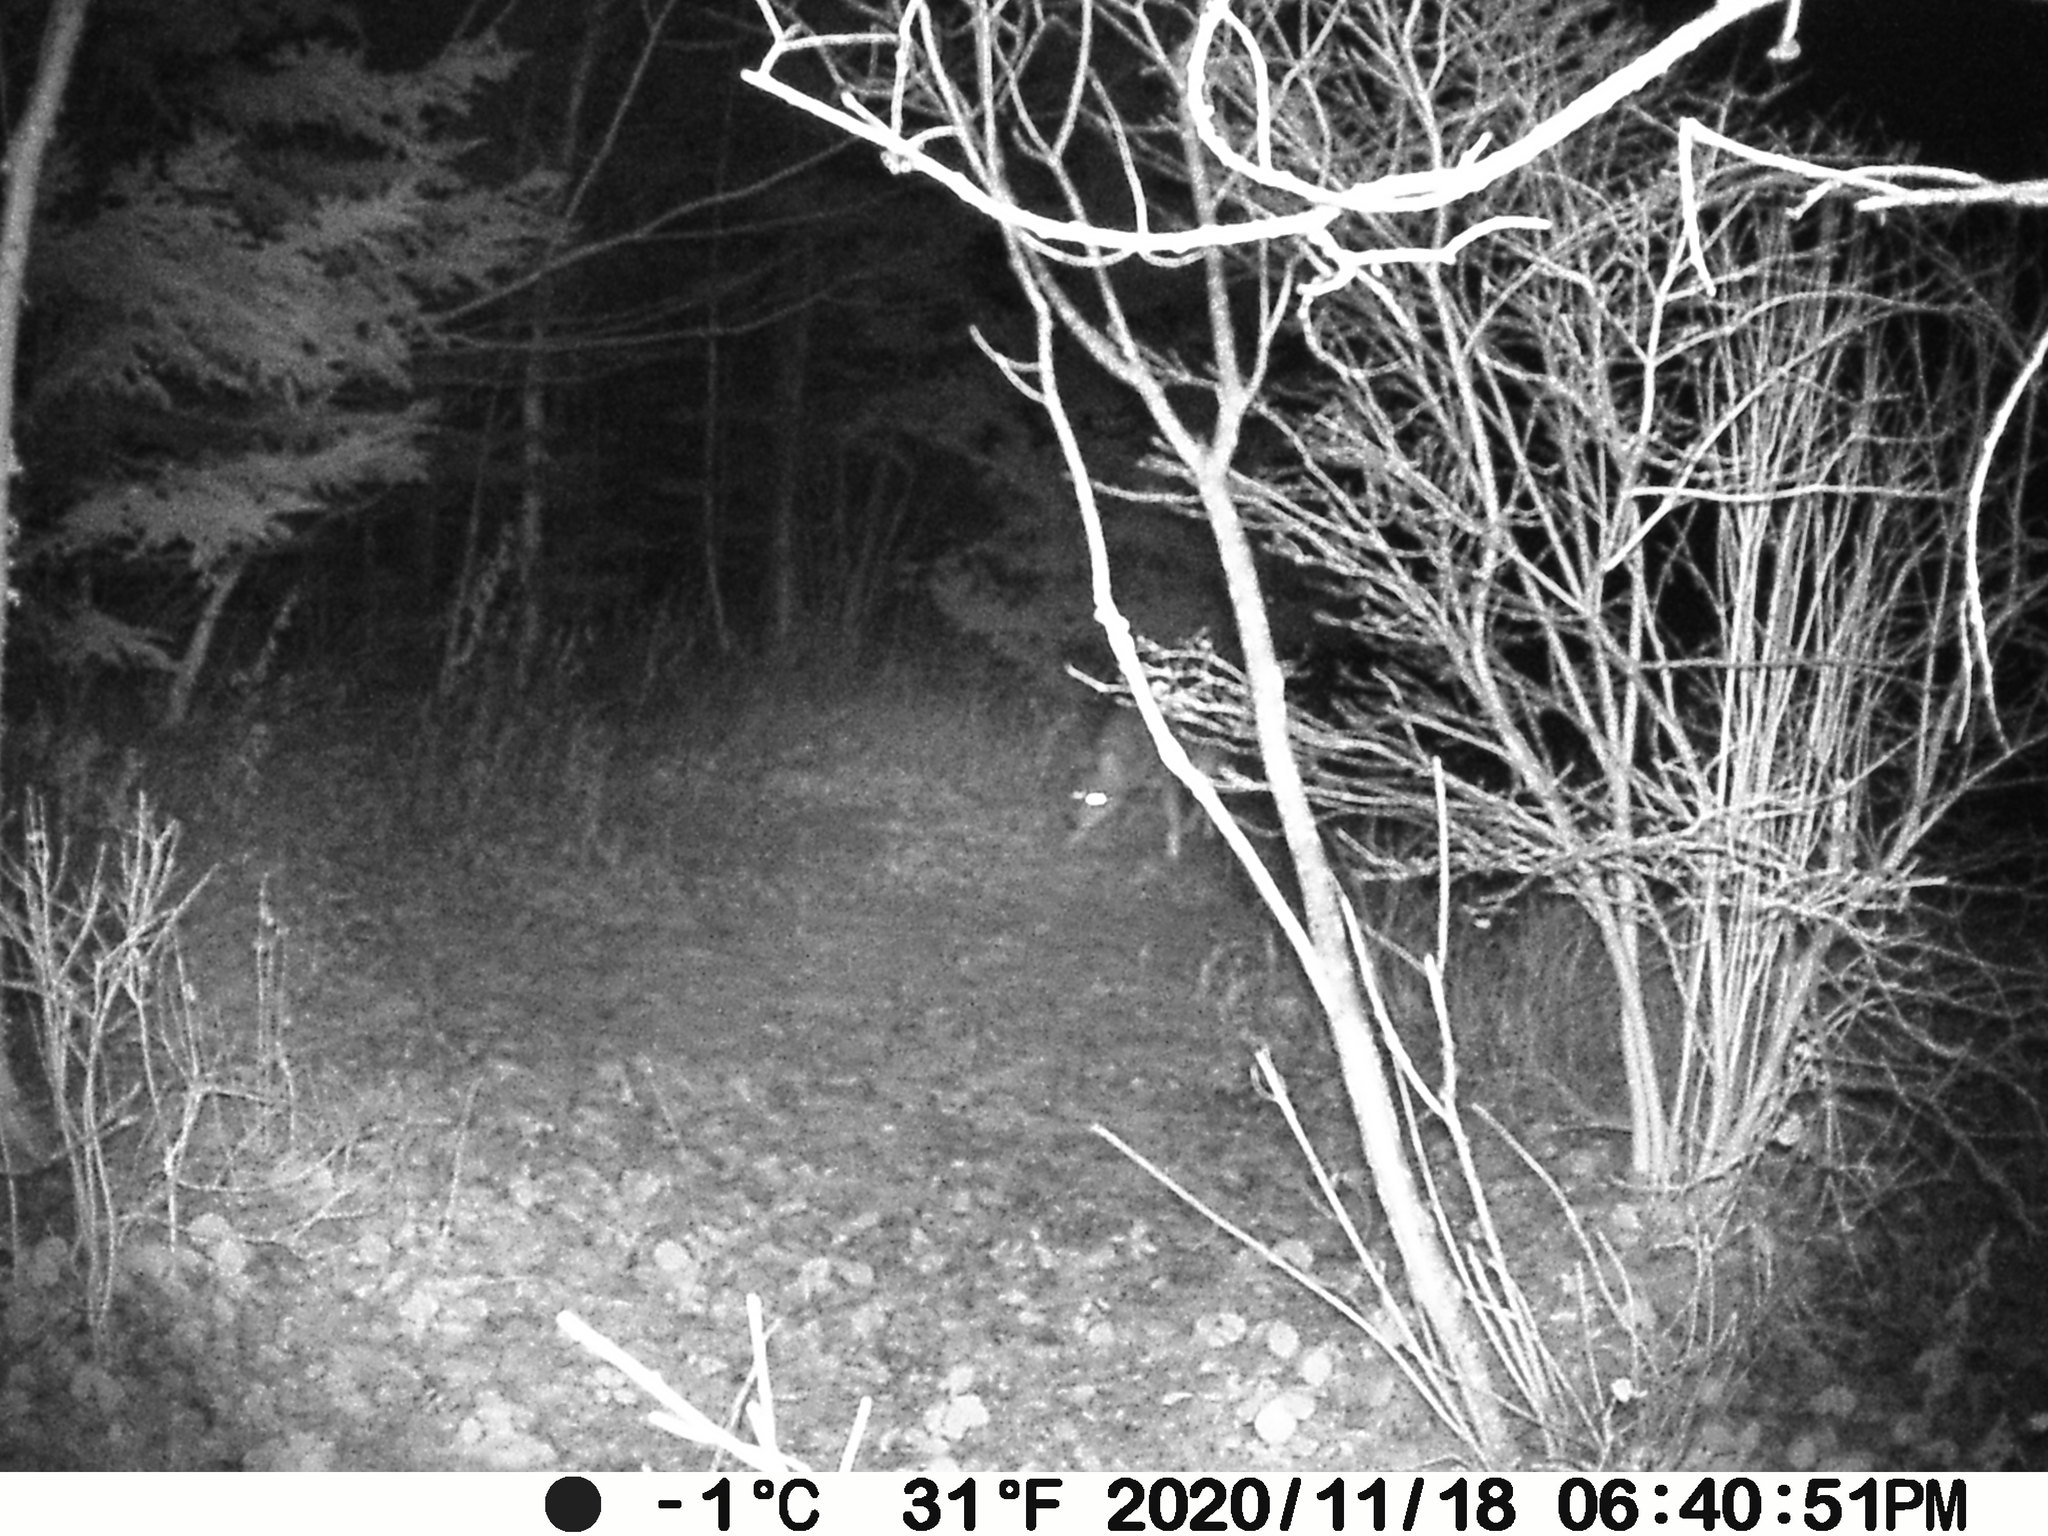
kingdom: Animalia
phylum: Chordata
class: Mammalia
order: Carnivora
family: Canidae
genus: Canis
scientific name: Canis latrans
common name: Coyote
